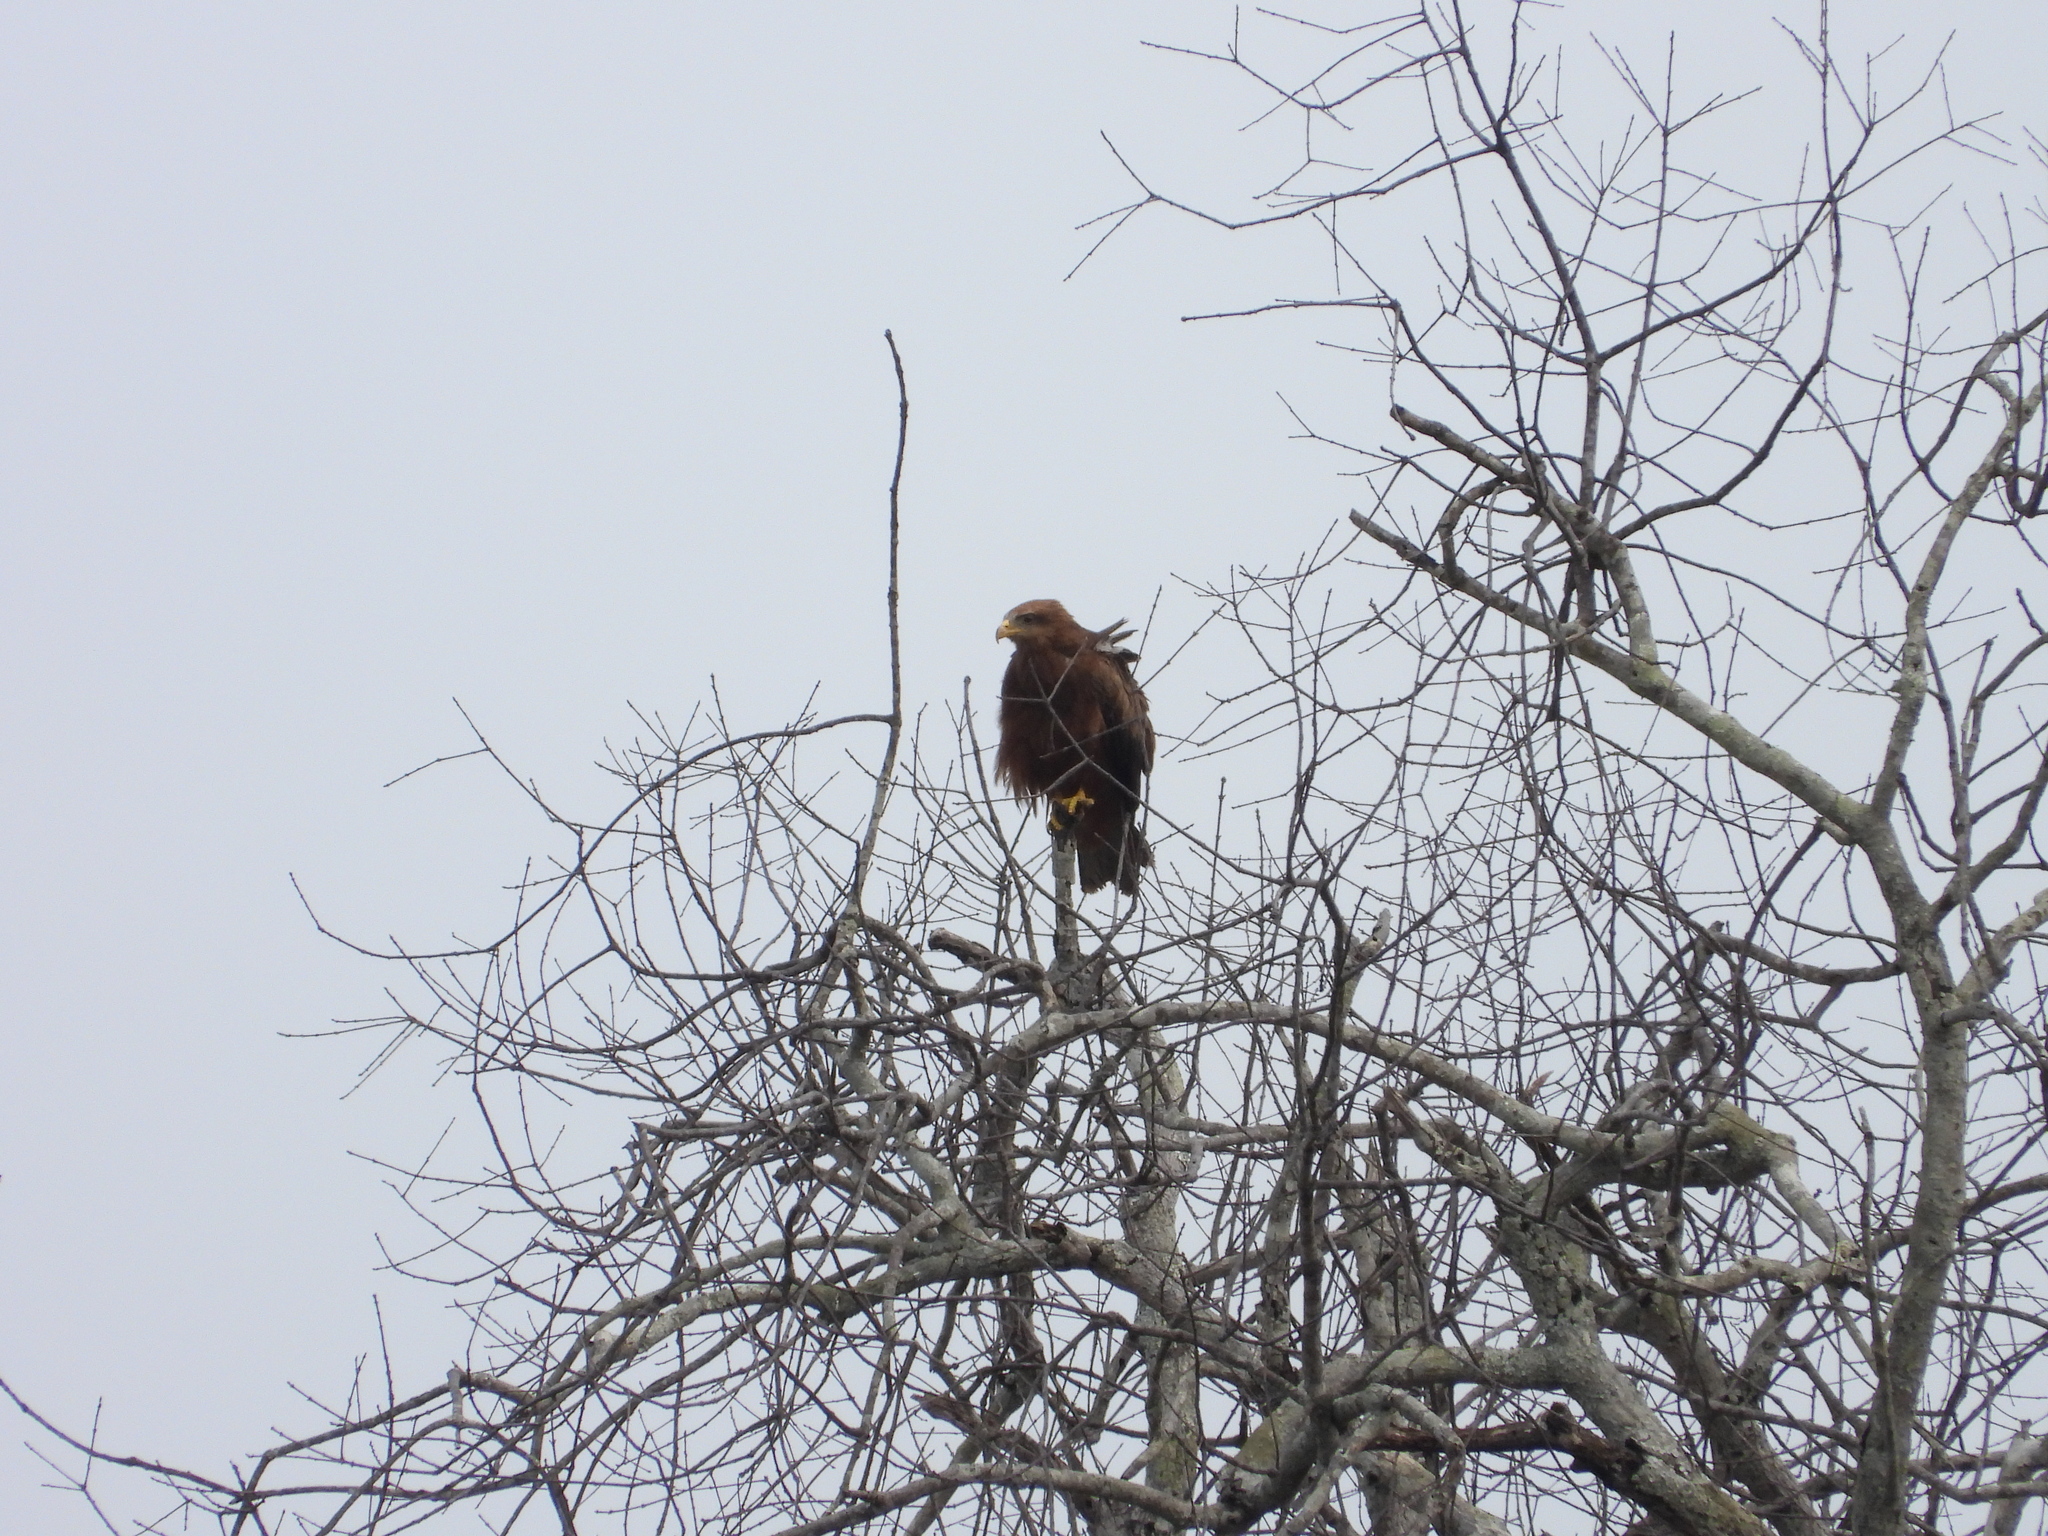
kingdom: Animalia
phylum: Chordata
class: Aves
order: Accipitriformes
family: Accipitridae
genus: Milvus
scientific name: Milvus migrans
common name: Black kite
